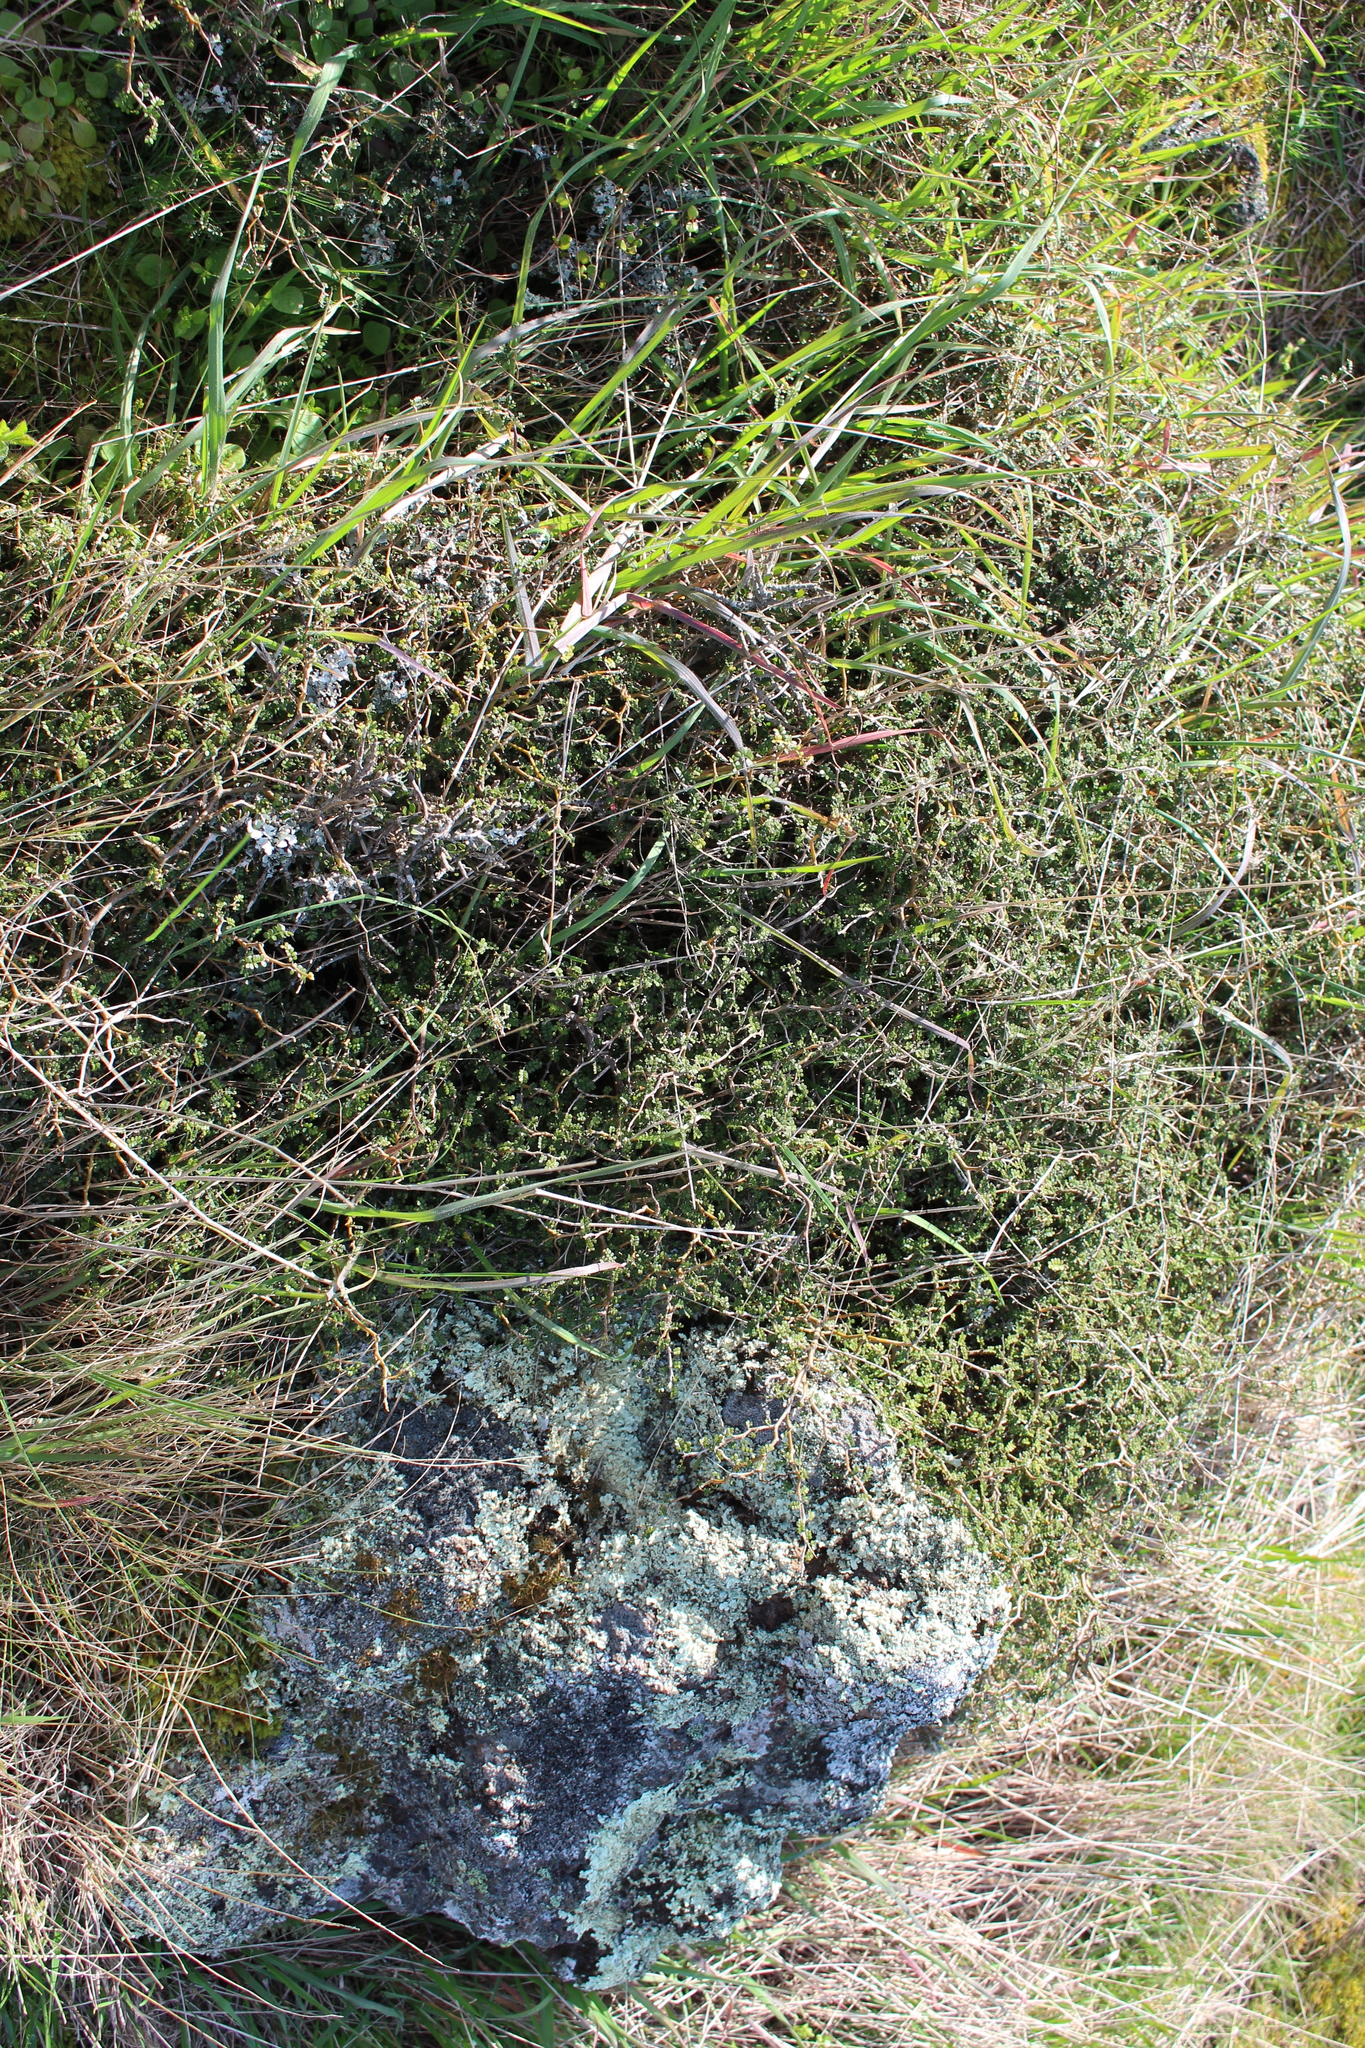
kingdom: Plantae
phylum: Tracheophyta
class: Magnoliopsida
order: Fabales
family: Fabaceae
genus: Sophora
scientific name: Sophora prostrata
